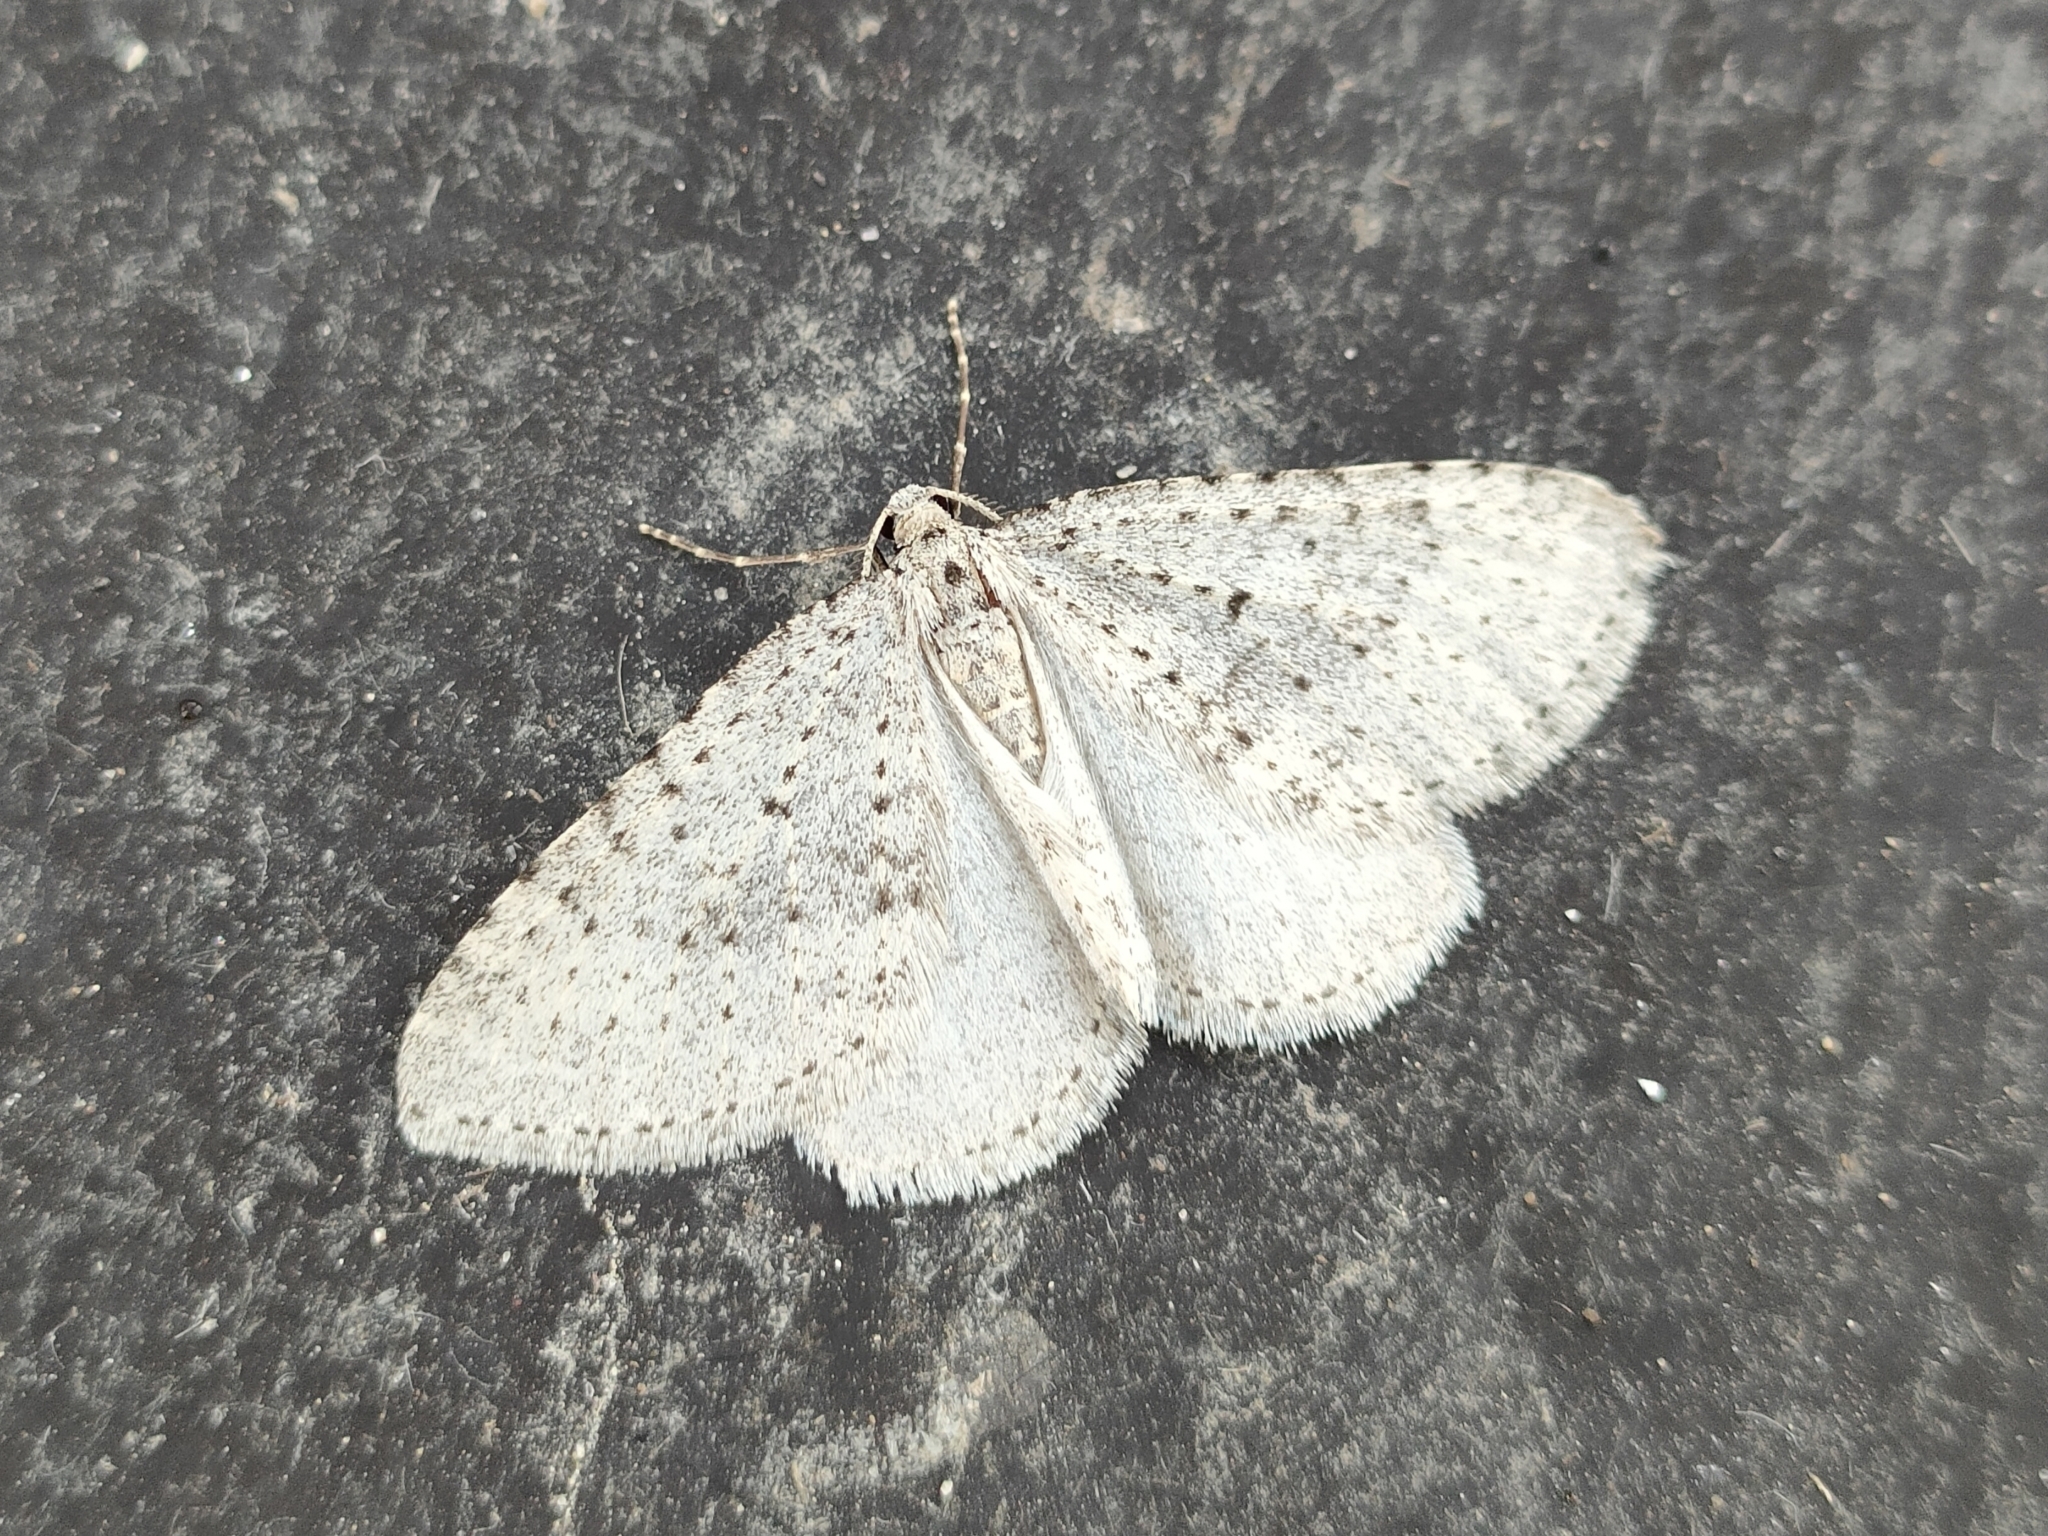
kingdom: Animalia
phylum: Arthropoda
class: Insecta
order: Lepidoptera
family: Geometridae
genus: Colostygia
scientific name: Colostygia multistrigaria
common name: Mottled grey
